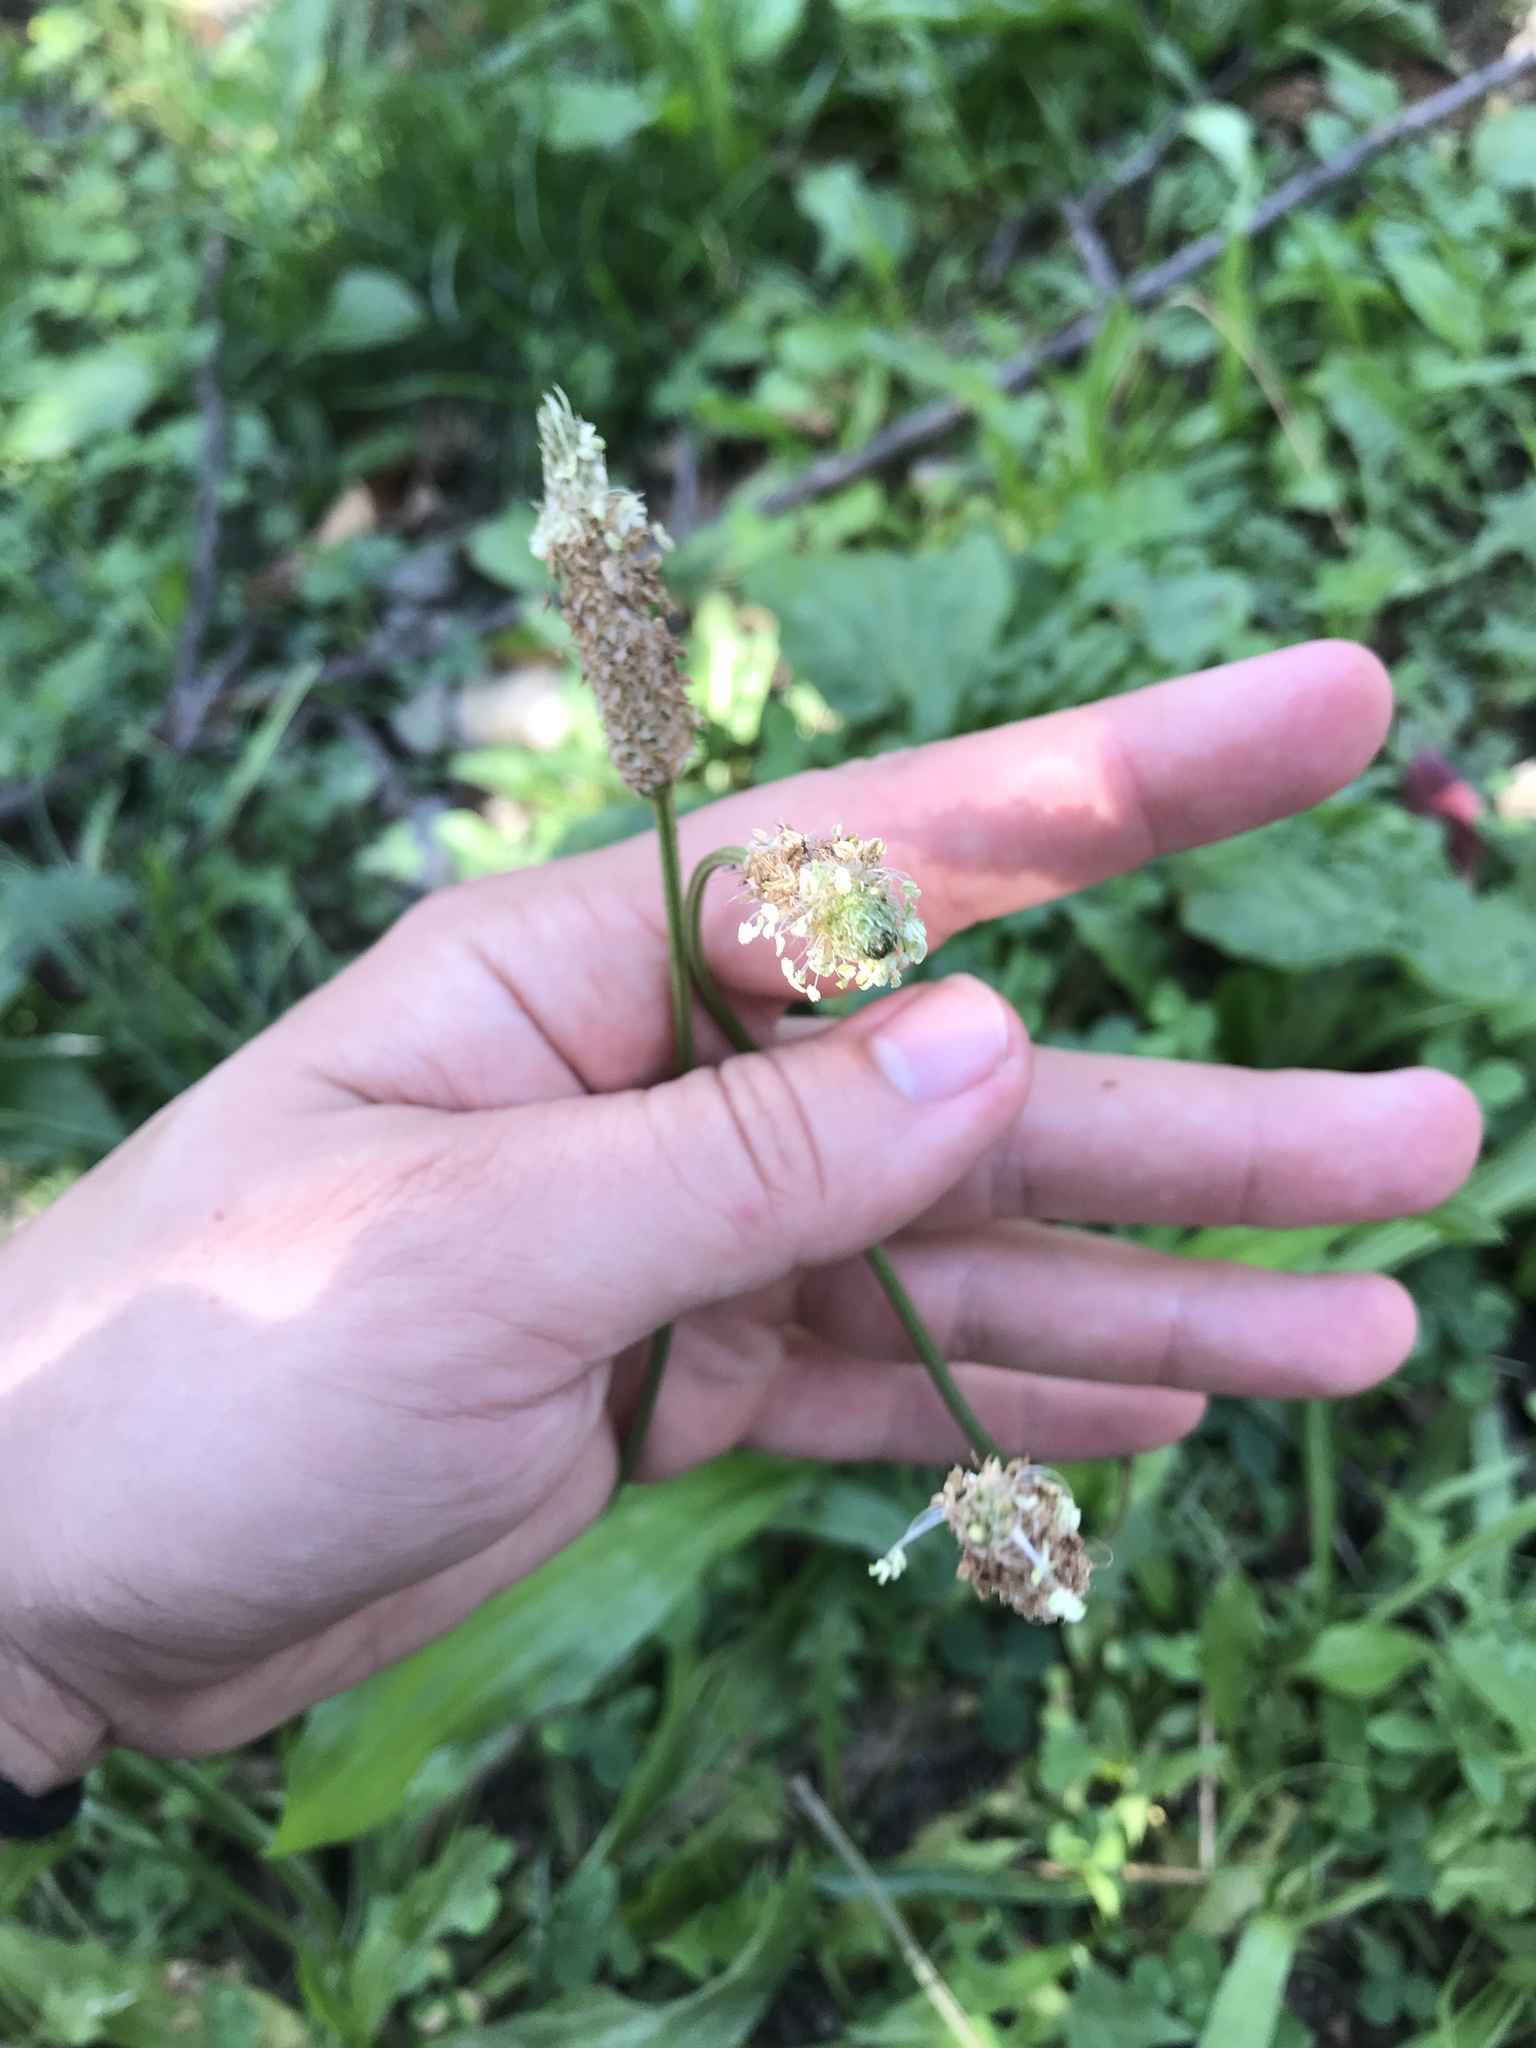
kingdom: Plantae
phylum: Tracheophyta
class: Magnoliopsida
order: Lamiales
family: Plantaginaceae
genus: Plantago
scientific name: Plantago lanceolata
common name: Ribwort plantain
